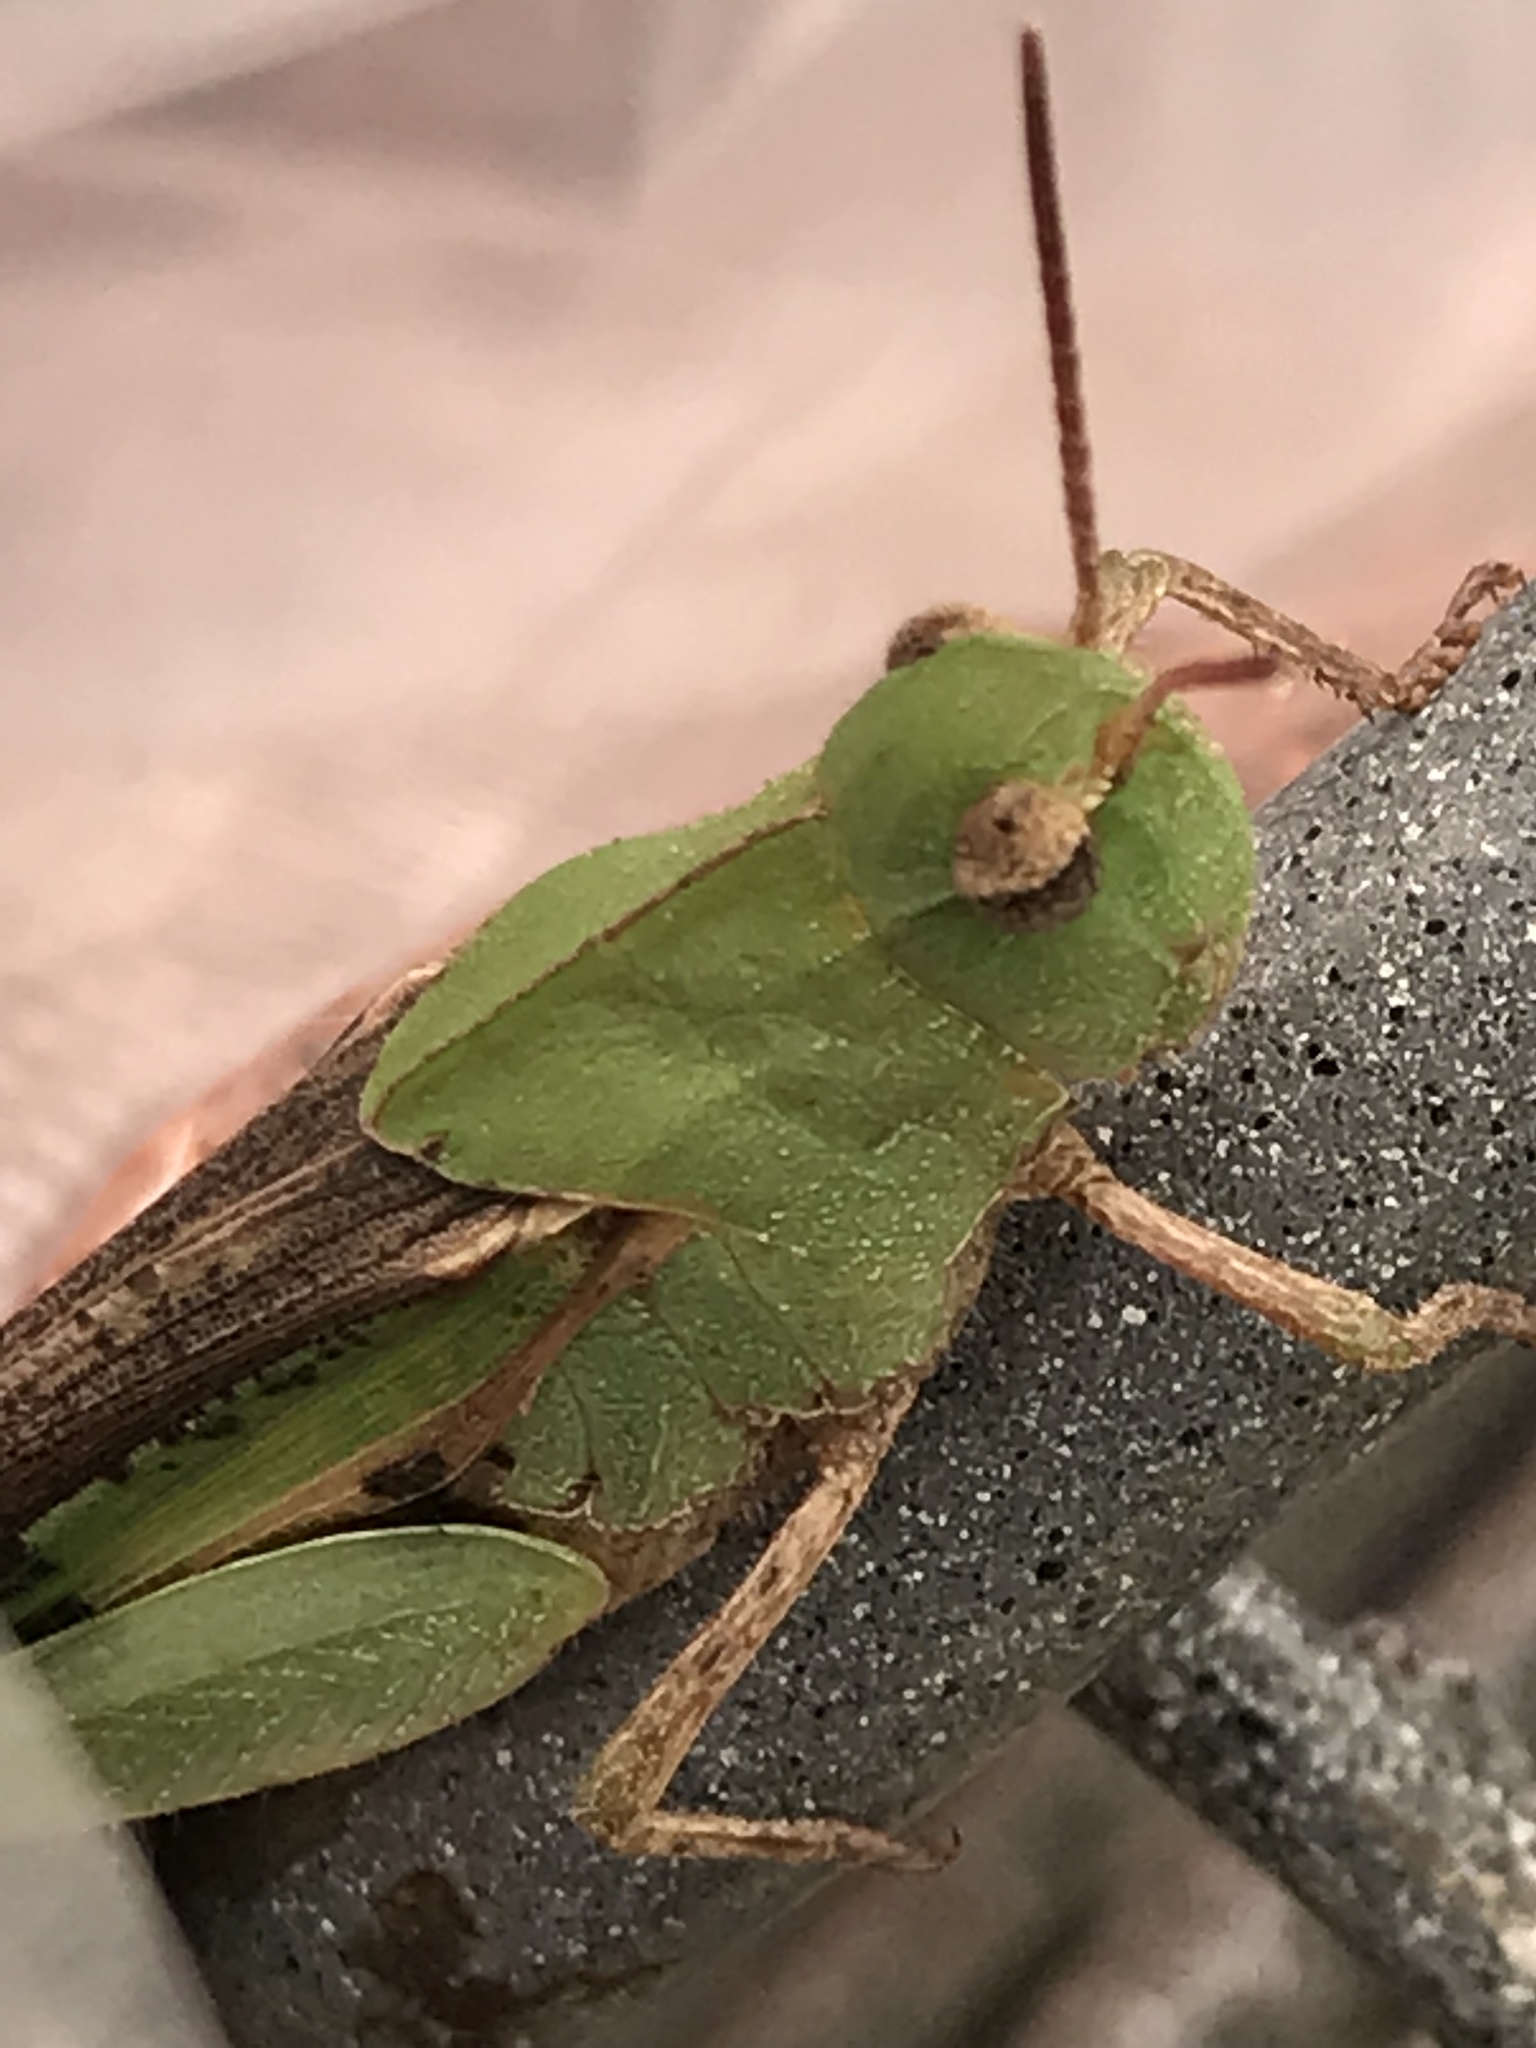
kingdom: Animalia
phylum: Arthropoda
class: Insecta
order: Orthoptera
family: Acrididae
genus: Chortophaga
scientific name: Chortophaga viridifasciata
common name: Green-striped grasshopper
